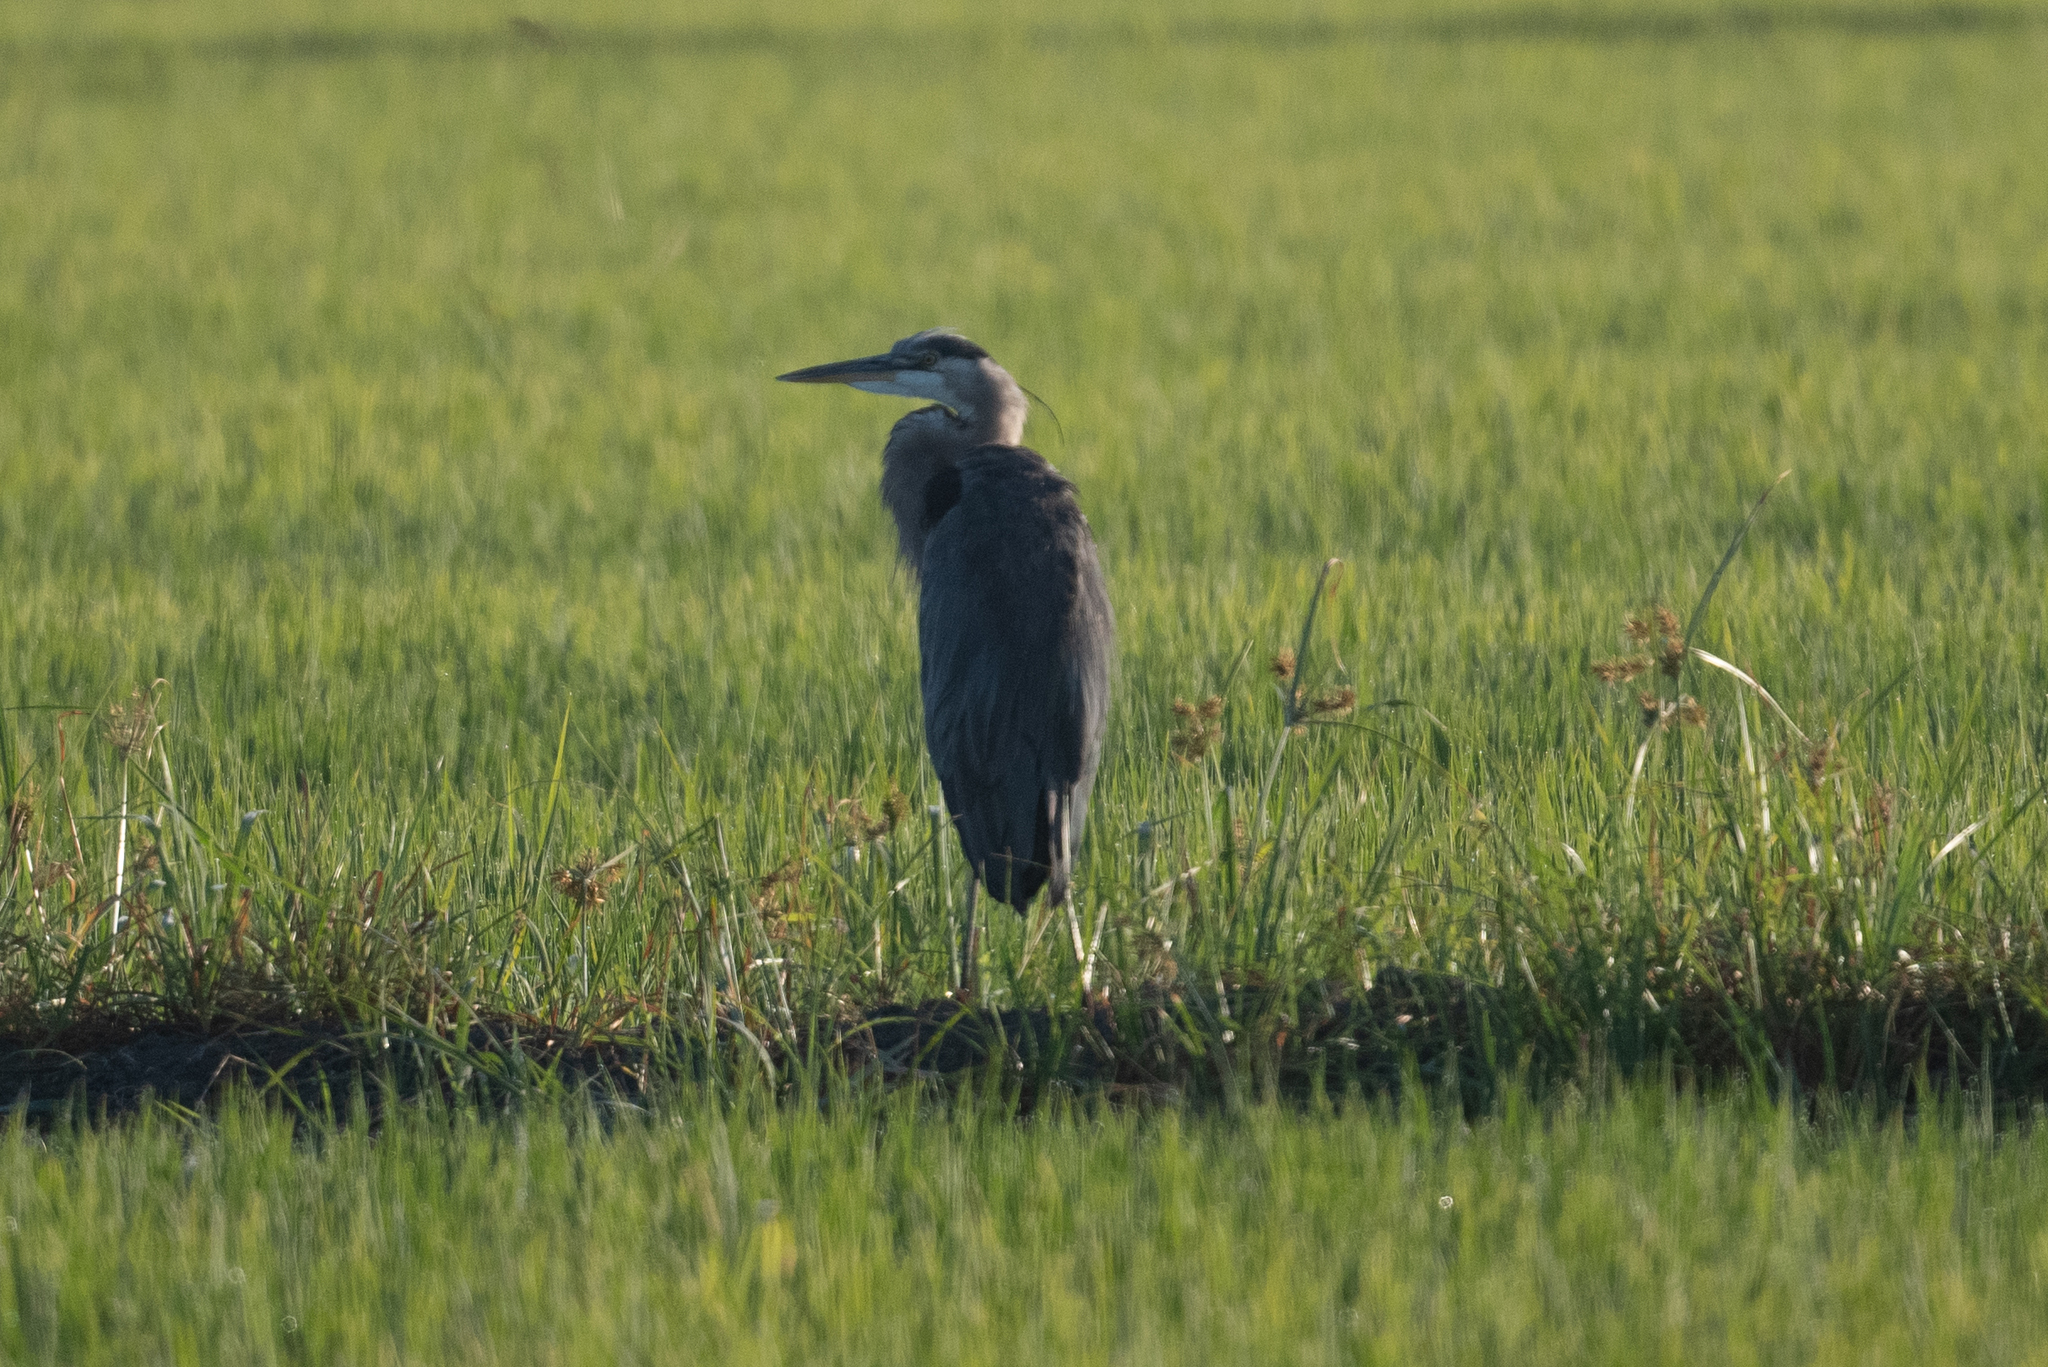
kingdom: Animalia
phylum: Chordata
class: Aves
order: Pelecaniformes
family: Ardeidae
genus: Ardea
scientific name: Ardea herodias
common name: Great blue heron
